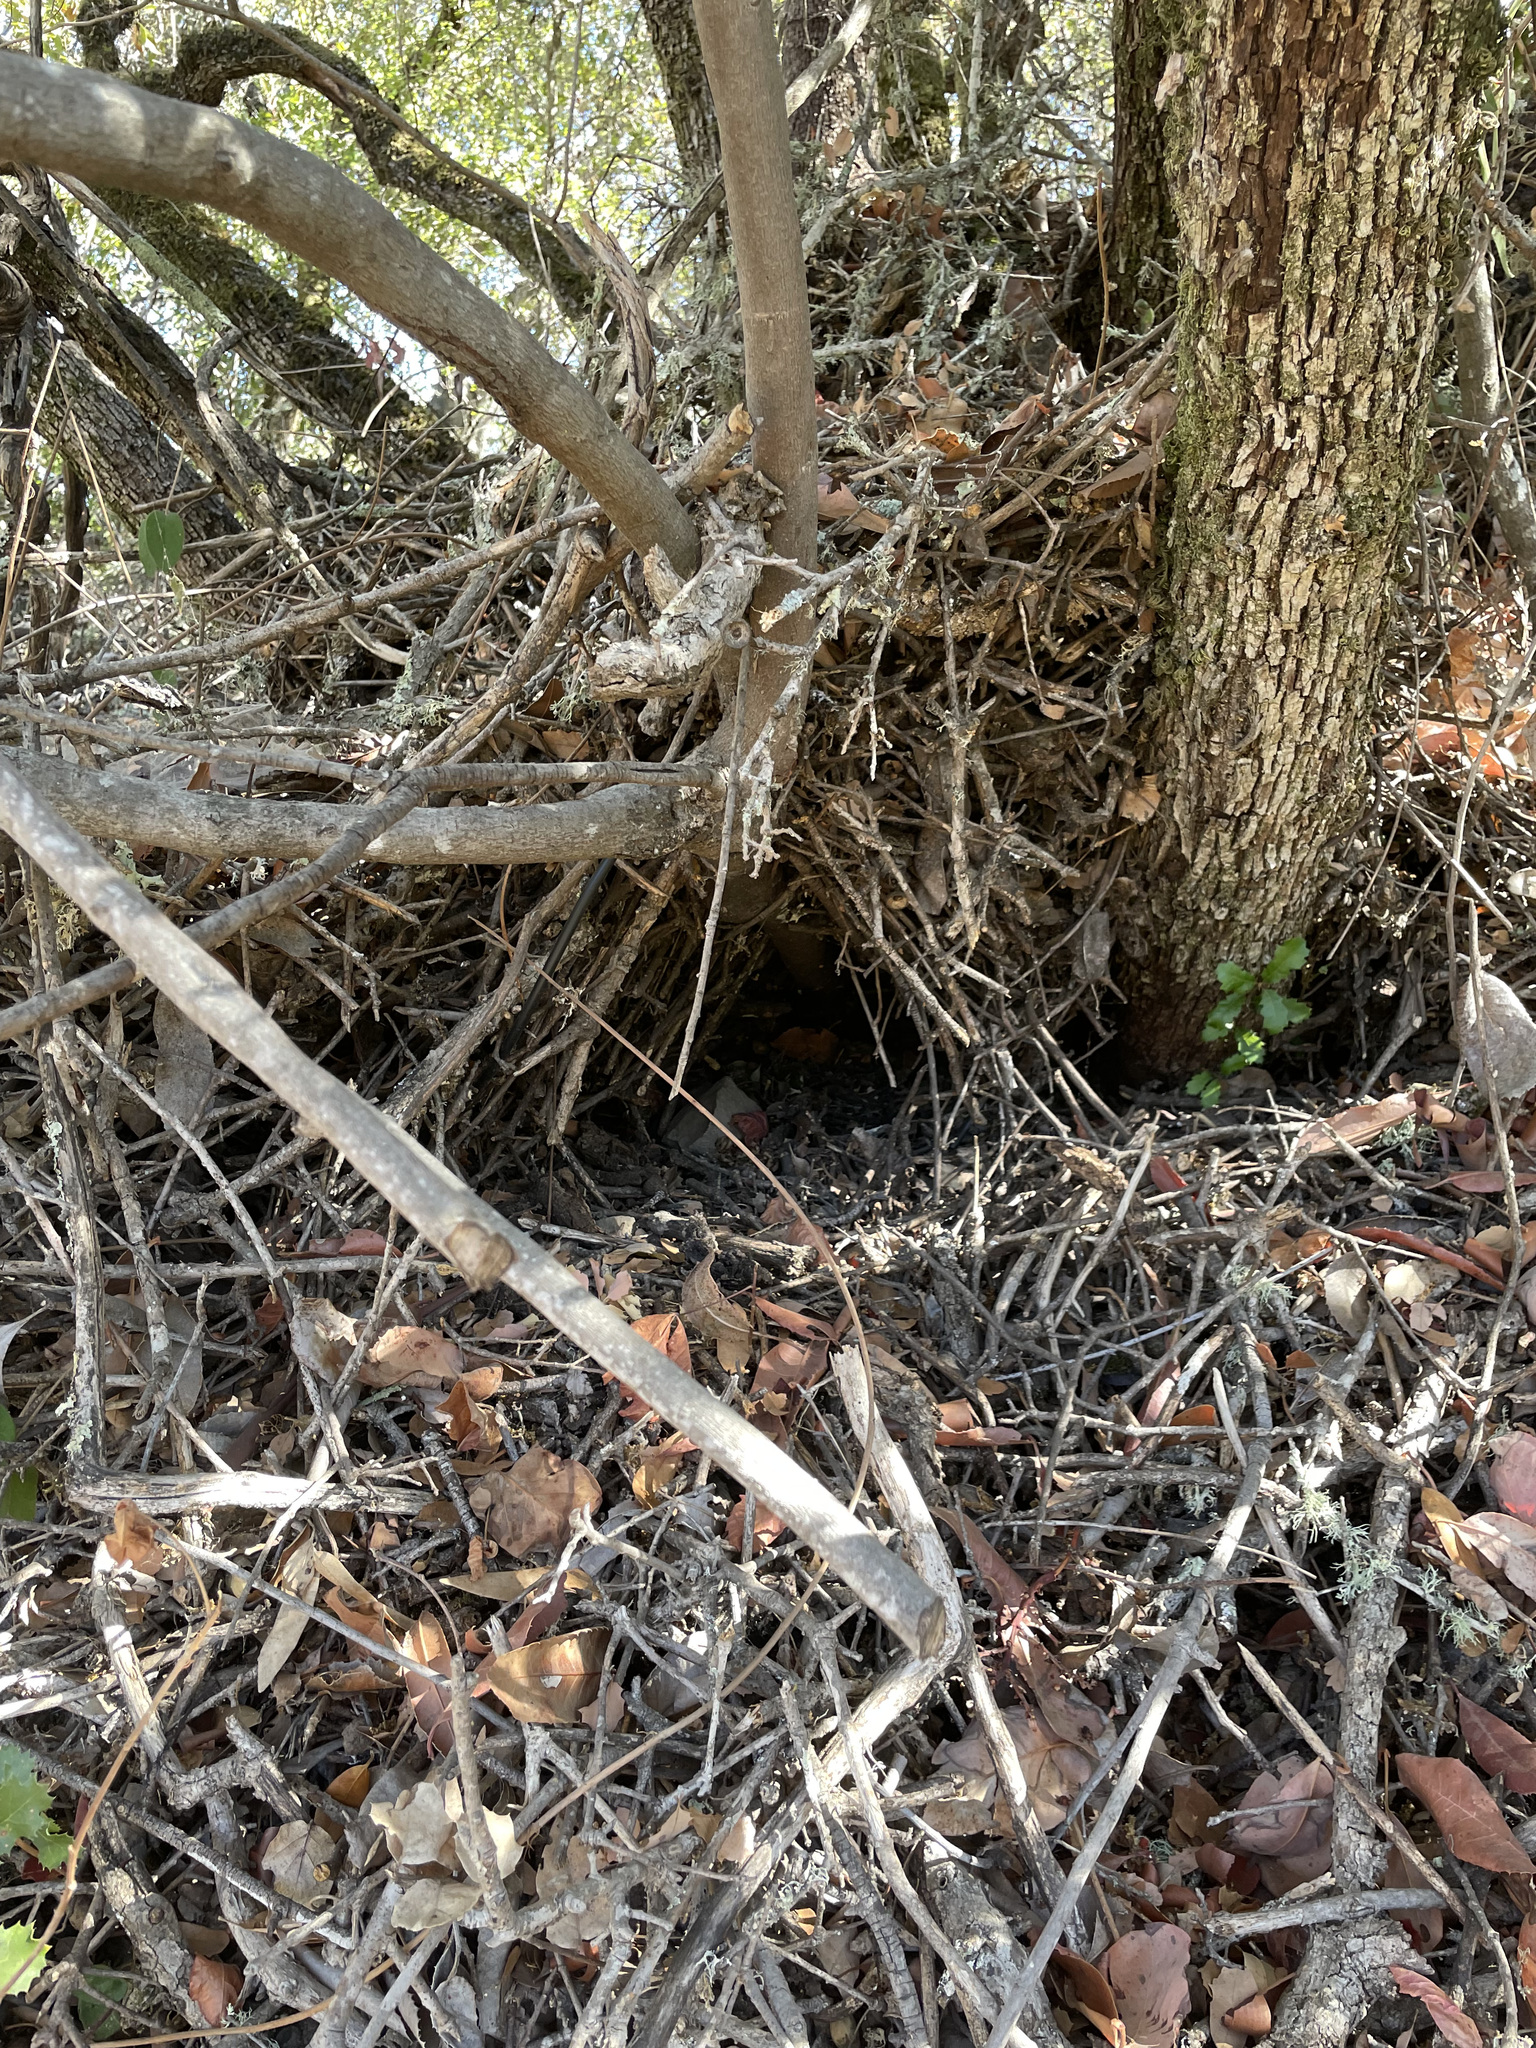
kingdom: Animalia
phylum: Chordata
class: Mammalia
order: Rodentia
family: Cricetidae
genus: Neotoma
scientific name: Neotoma fuscipes
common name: Dusky-footed woodrat
